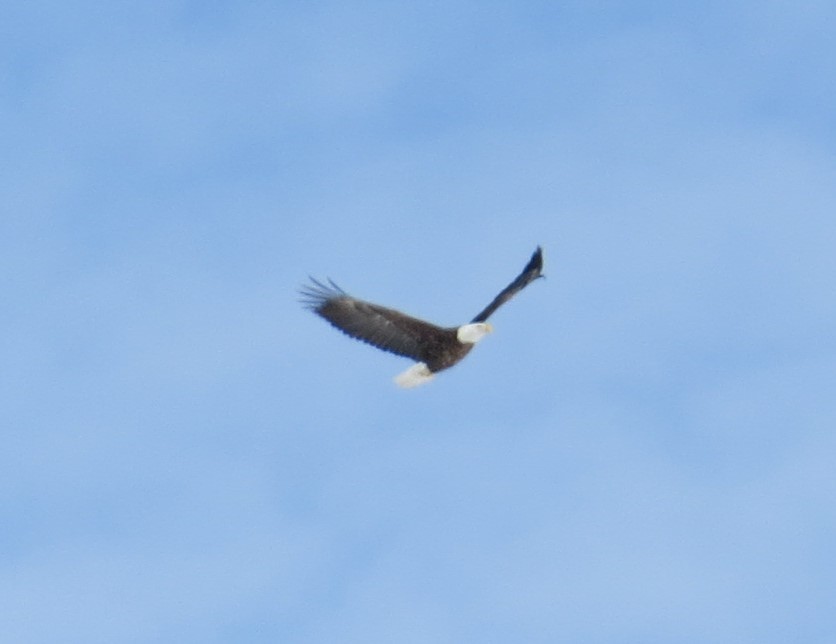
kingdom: Animalia
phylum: Chordata
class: Aves
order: Accipitriformes
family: Accipitridae
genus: Haliaeetus
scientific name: Haliaeetus leucocephalus
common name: Bald eagle
